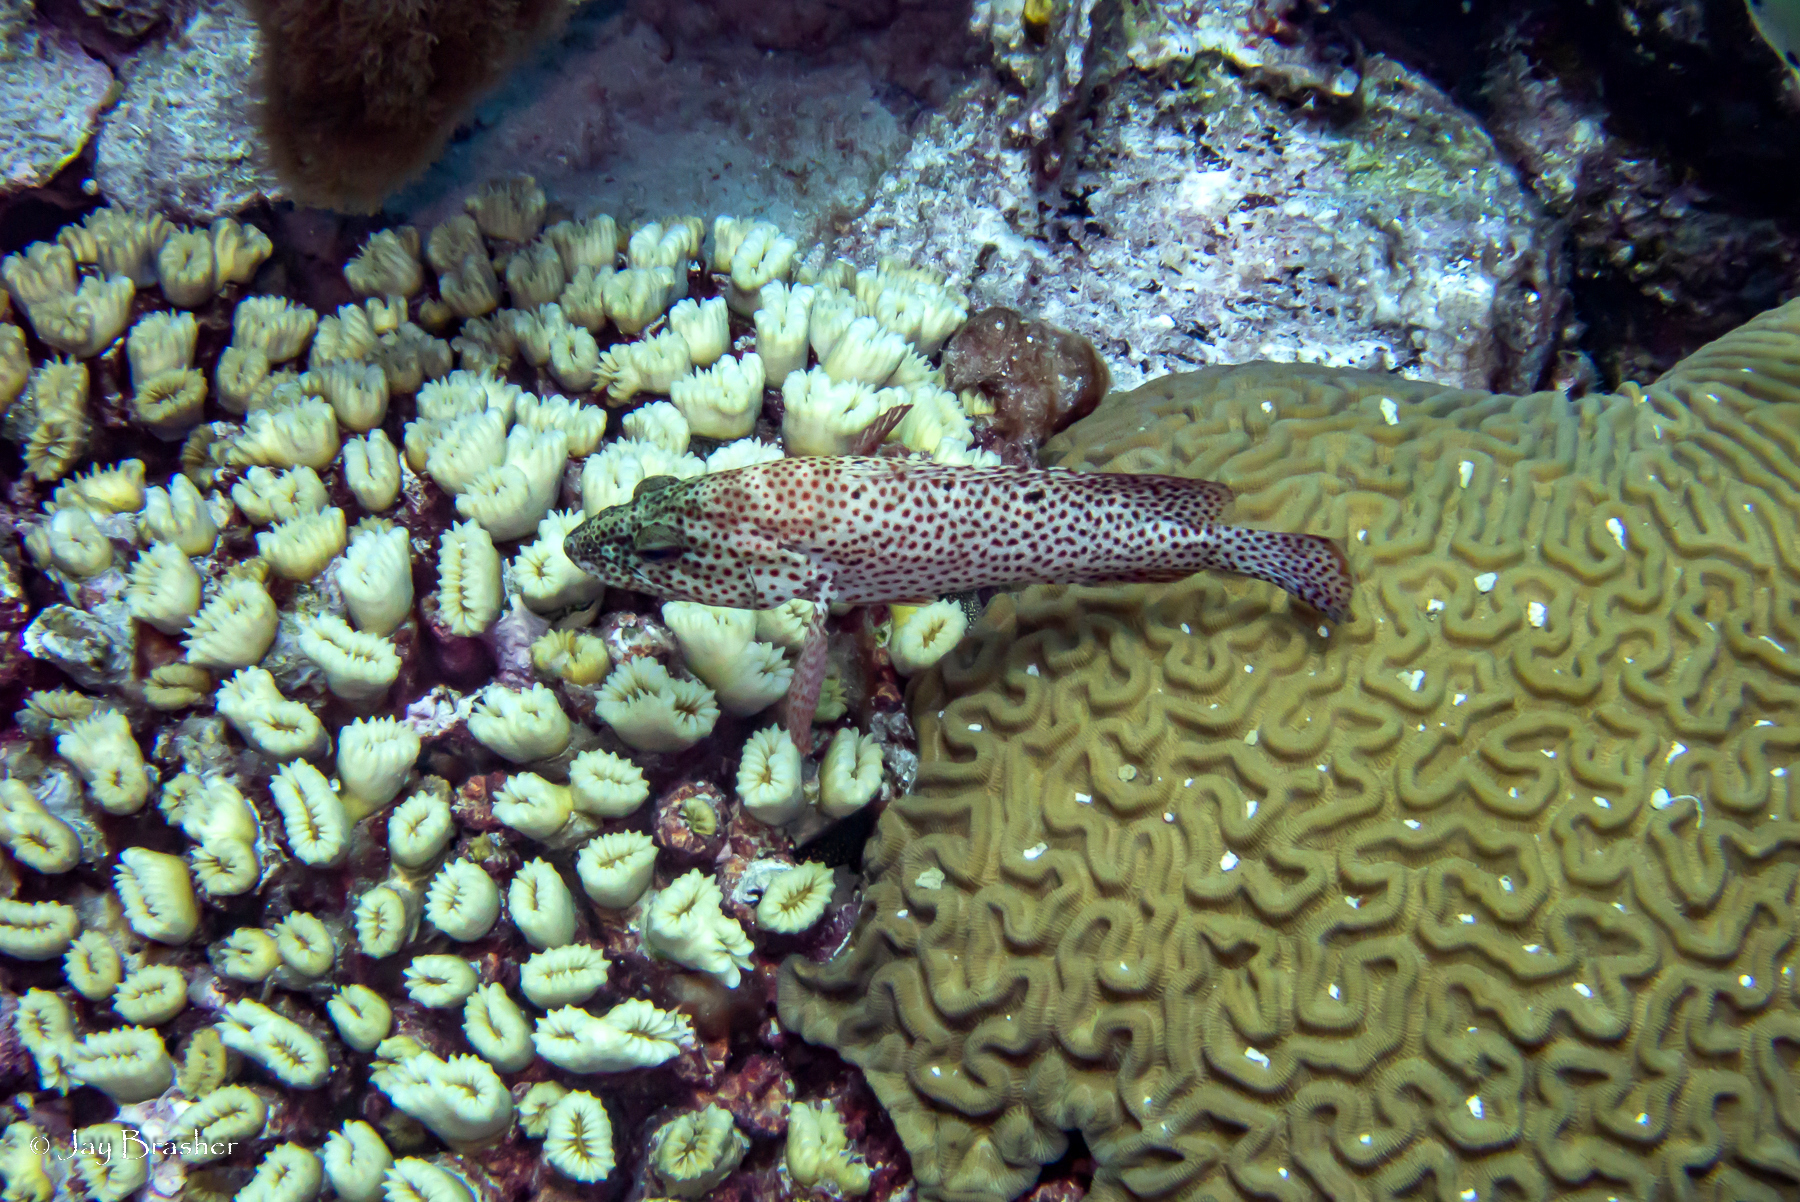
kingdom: Animalia
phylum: Chordata
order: Perciformes
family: Serranidae
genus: Cephalopholis
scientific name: Cephalopholis cruentata
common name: Graysby
